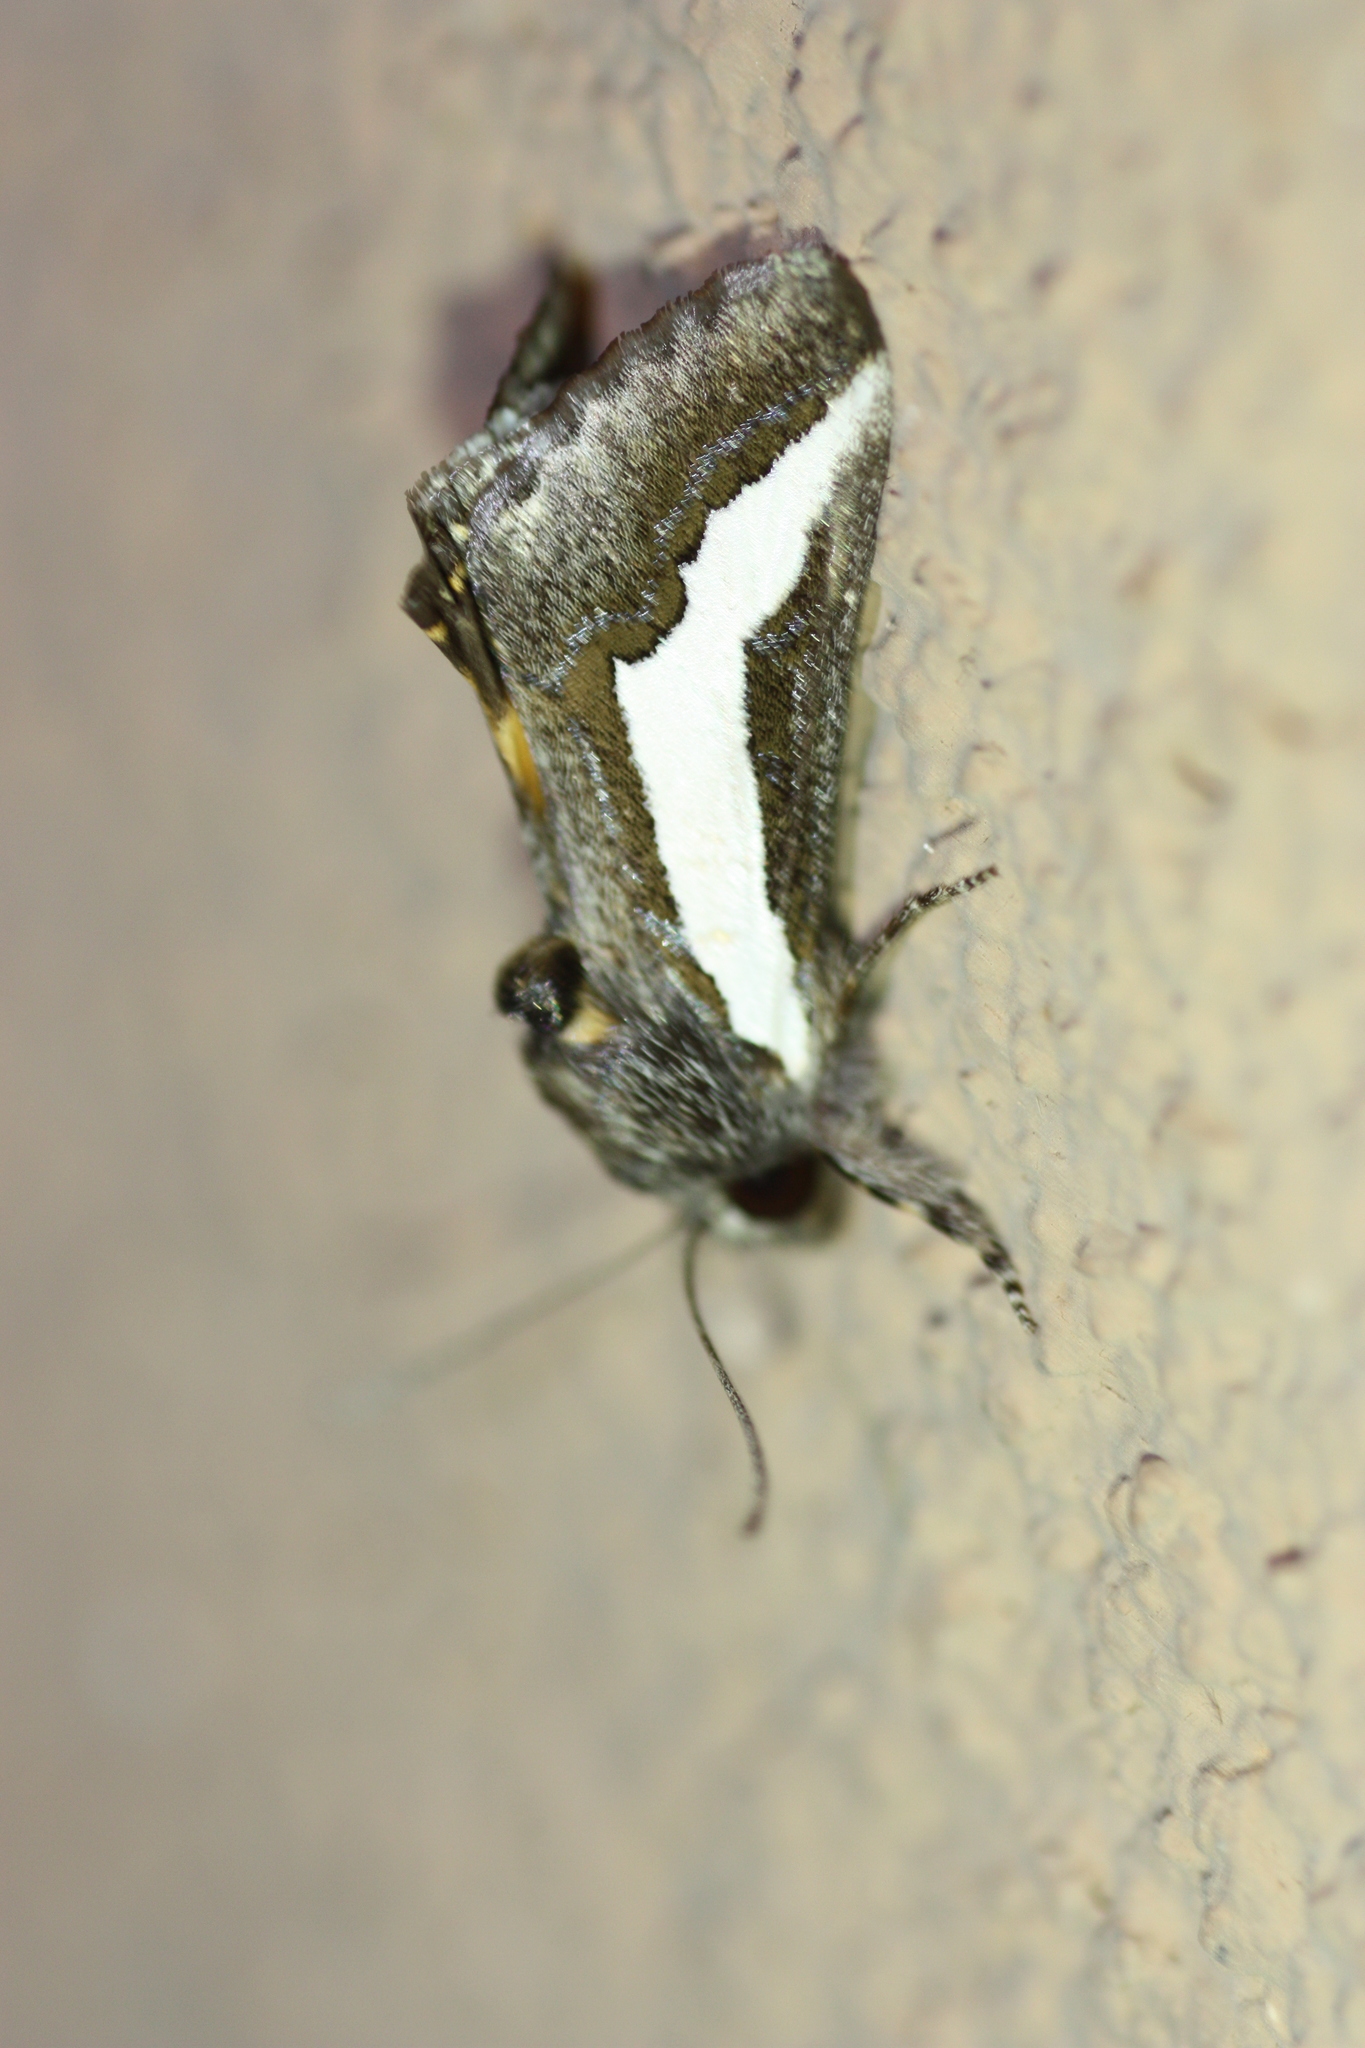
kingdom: Animalia
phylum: Arthropoda
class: Insecta
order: Lepidoptera
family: Noctuidae
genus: Euscirrhopterus
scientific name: Euscirrhopterus cosyra
